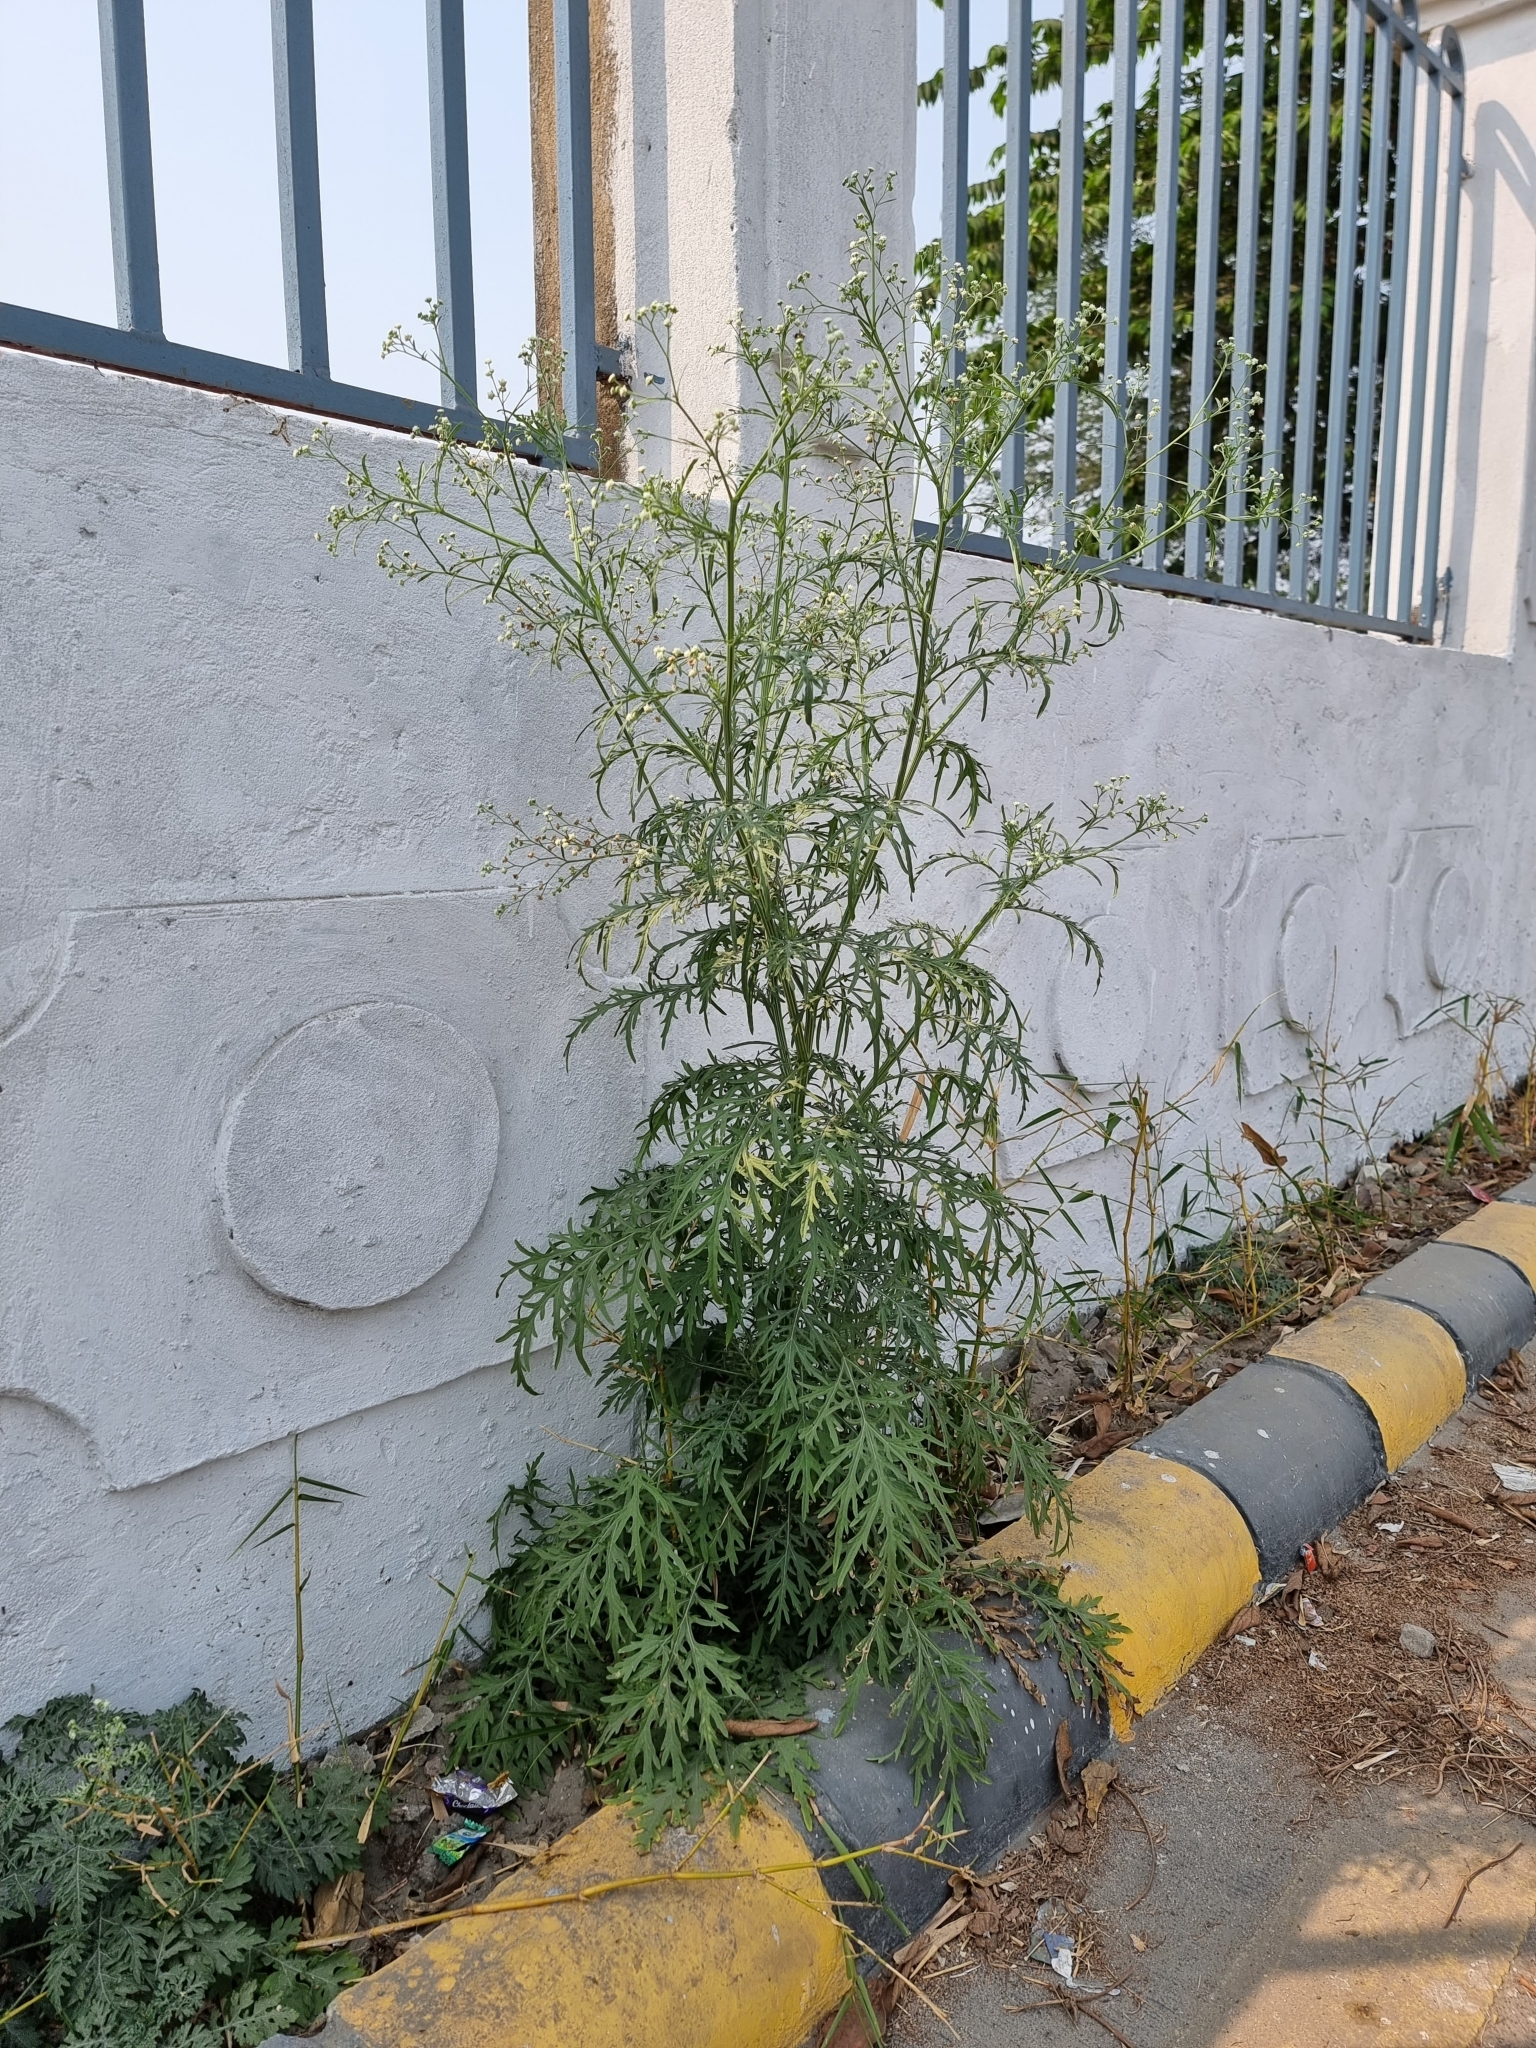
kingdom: Plantae
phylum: Tracheophyta
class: Magnoliopsida
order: Asterales
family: Asteraceae
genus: Parthenium
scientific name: Parthenium hysterophorus
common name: Santa maria feverfew
